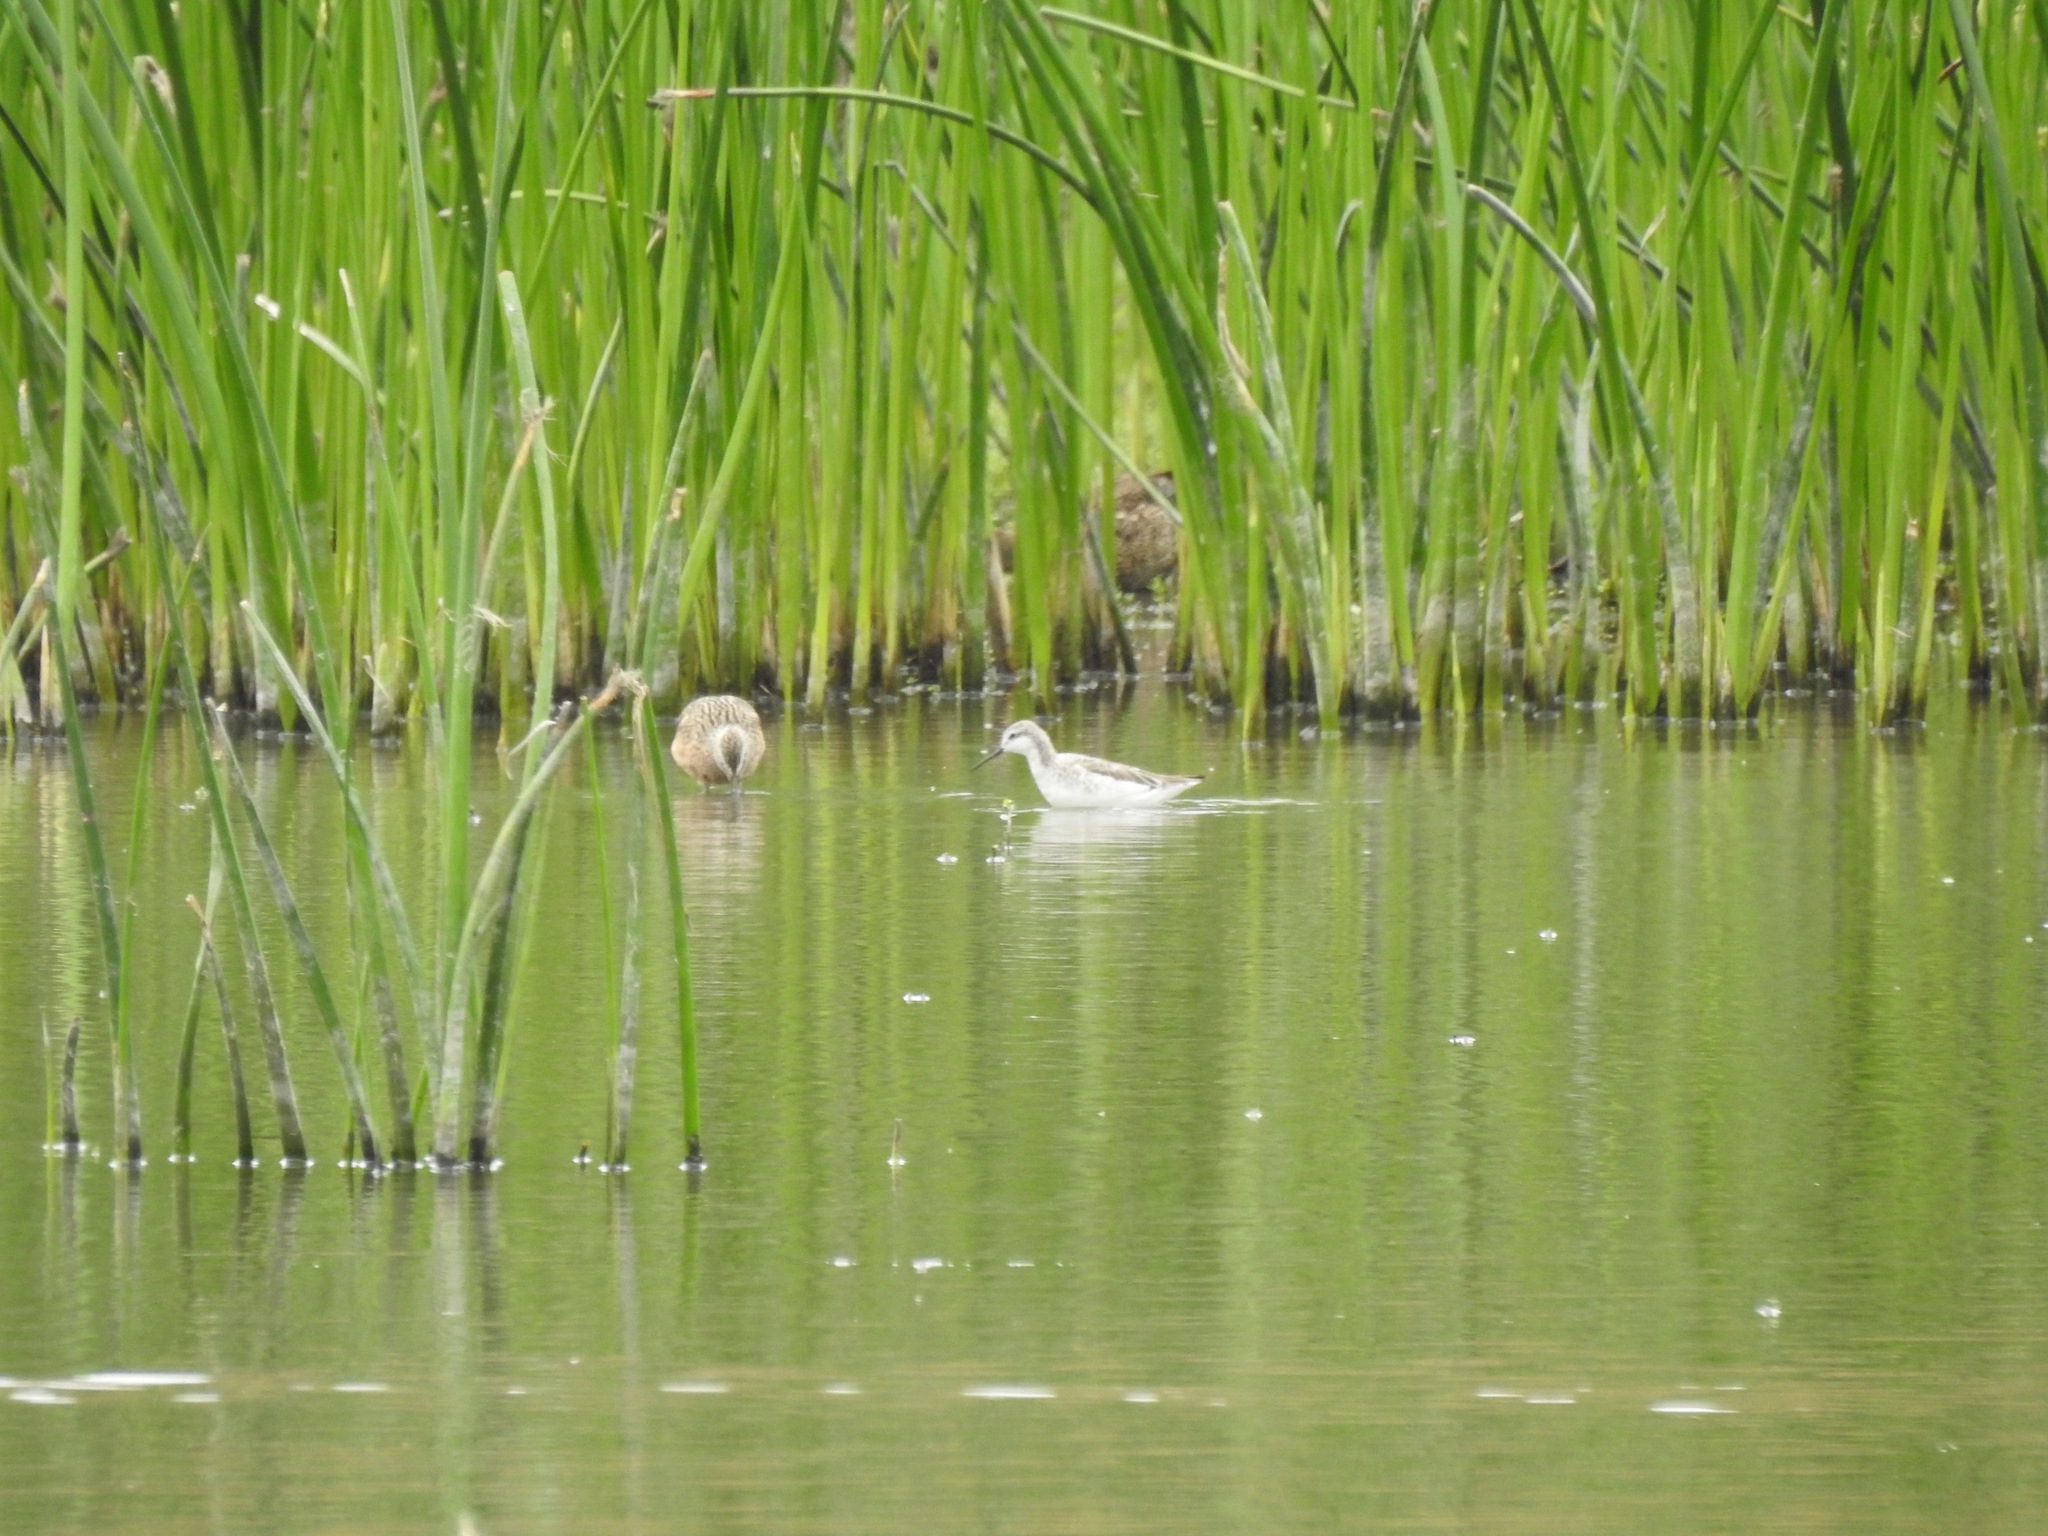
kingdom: Animalia
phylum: Chordata
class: Aves
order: Charadriiformes
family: Scolopacidae
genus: Phalaropus
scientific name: Phalaropus tricolor
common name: Wilson's phalarope
